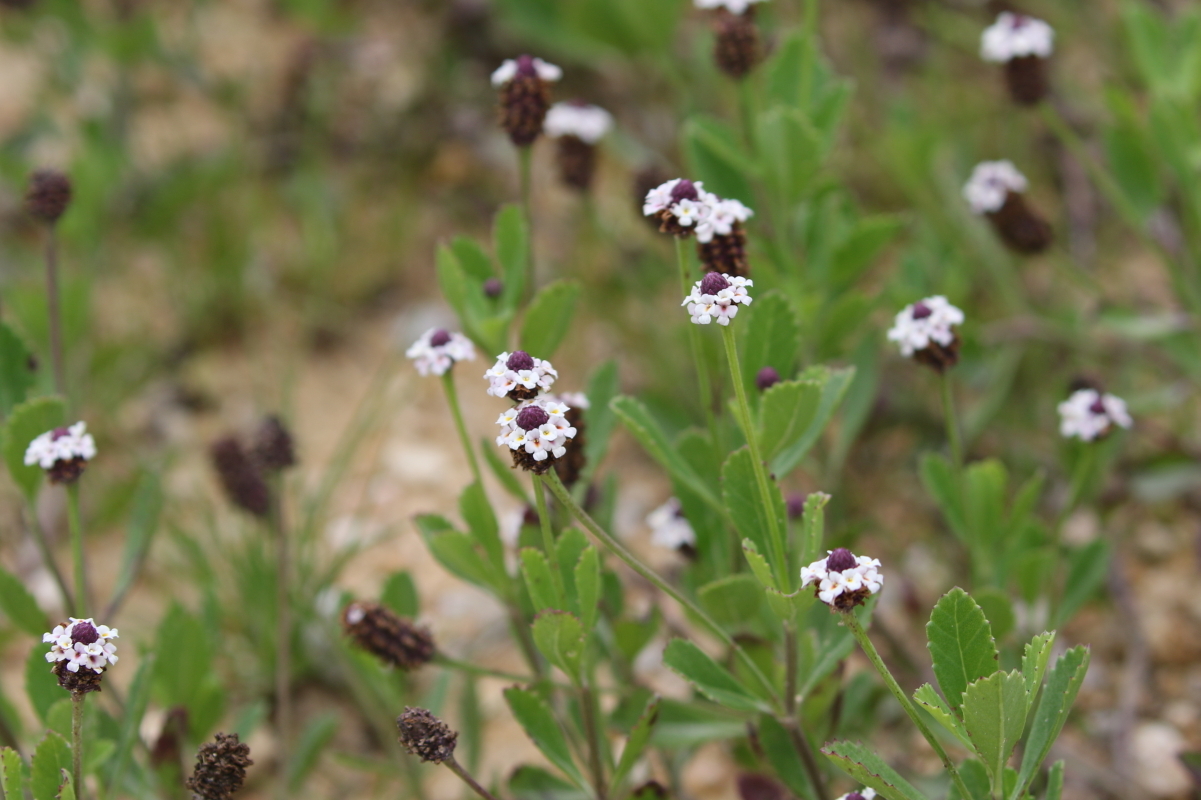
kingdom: Plantae
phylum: Tracheophyta
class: Magnoliopsida
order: Lamiales
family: Verbenaceae
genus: Phyla
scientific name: Phyla nodiflora
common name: Frogfruit
